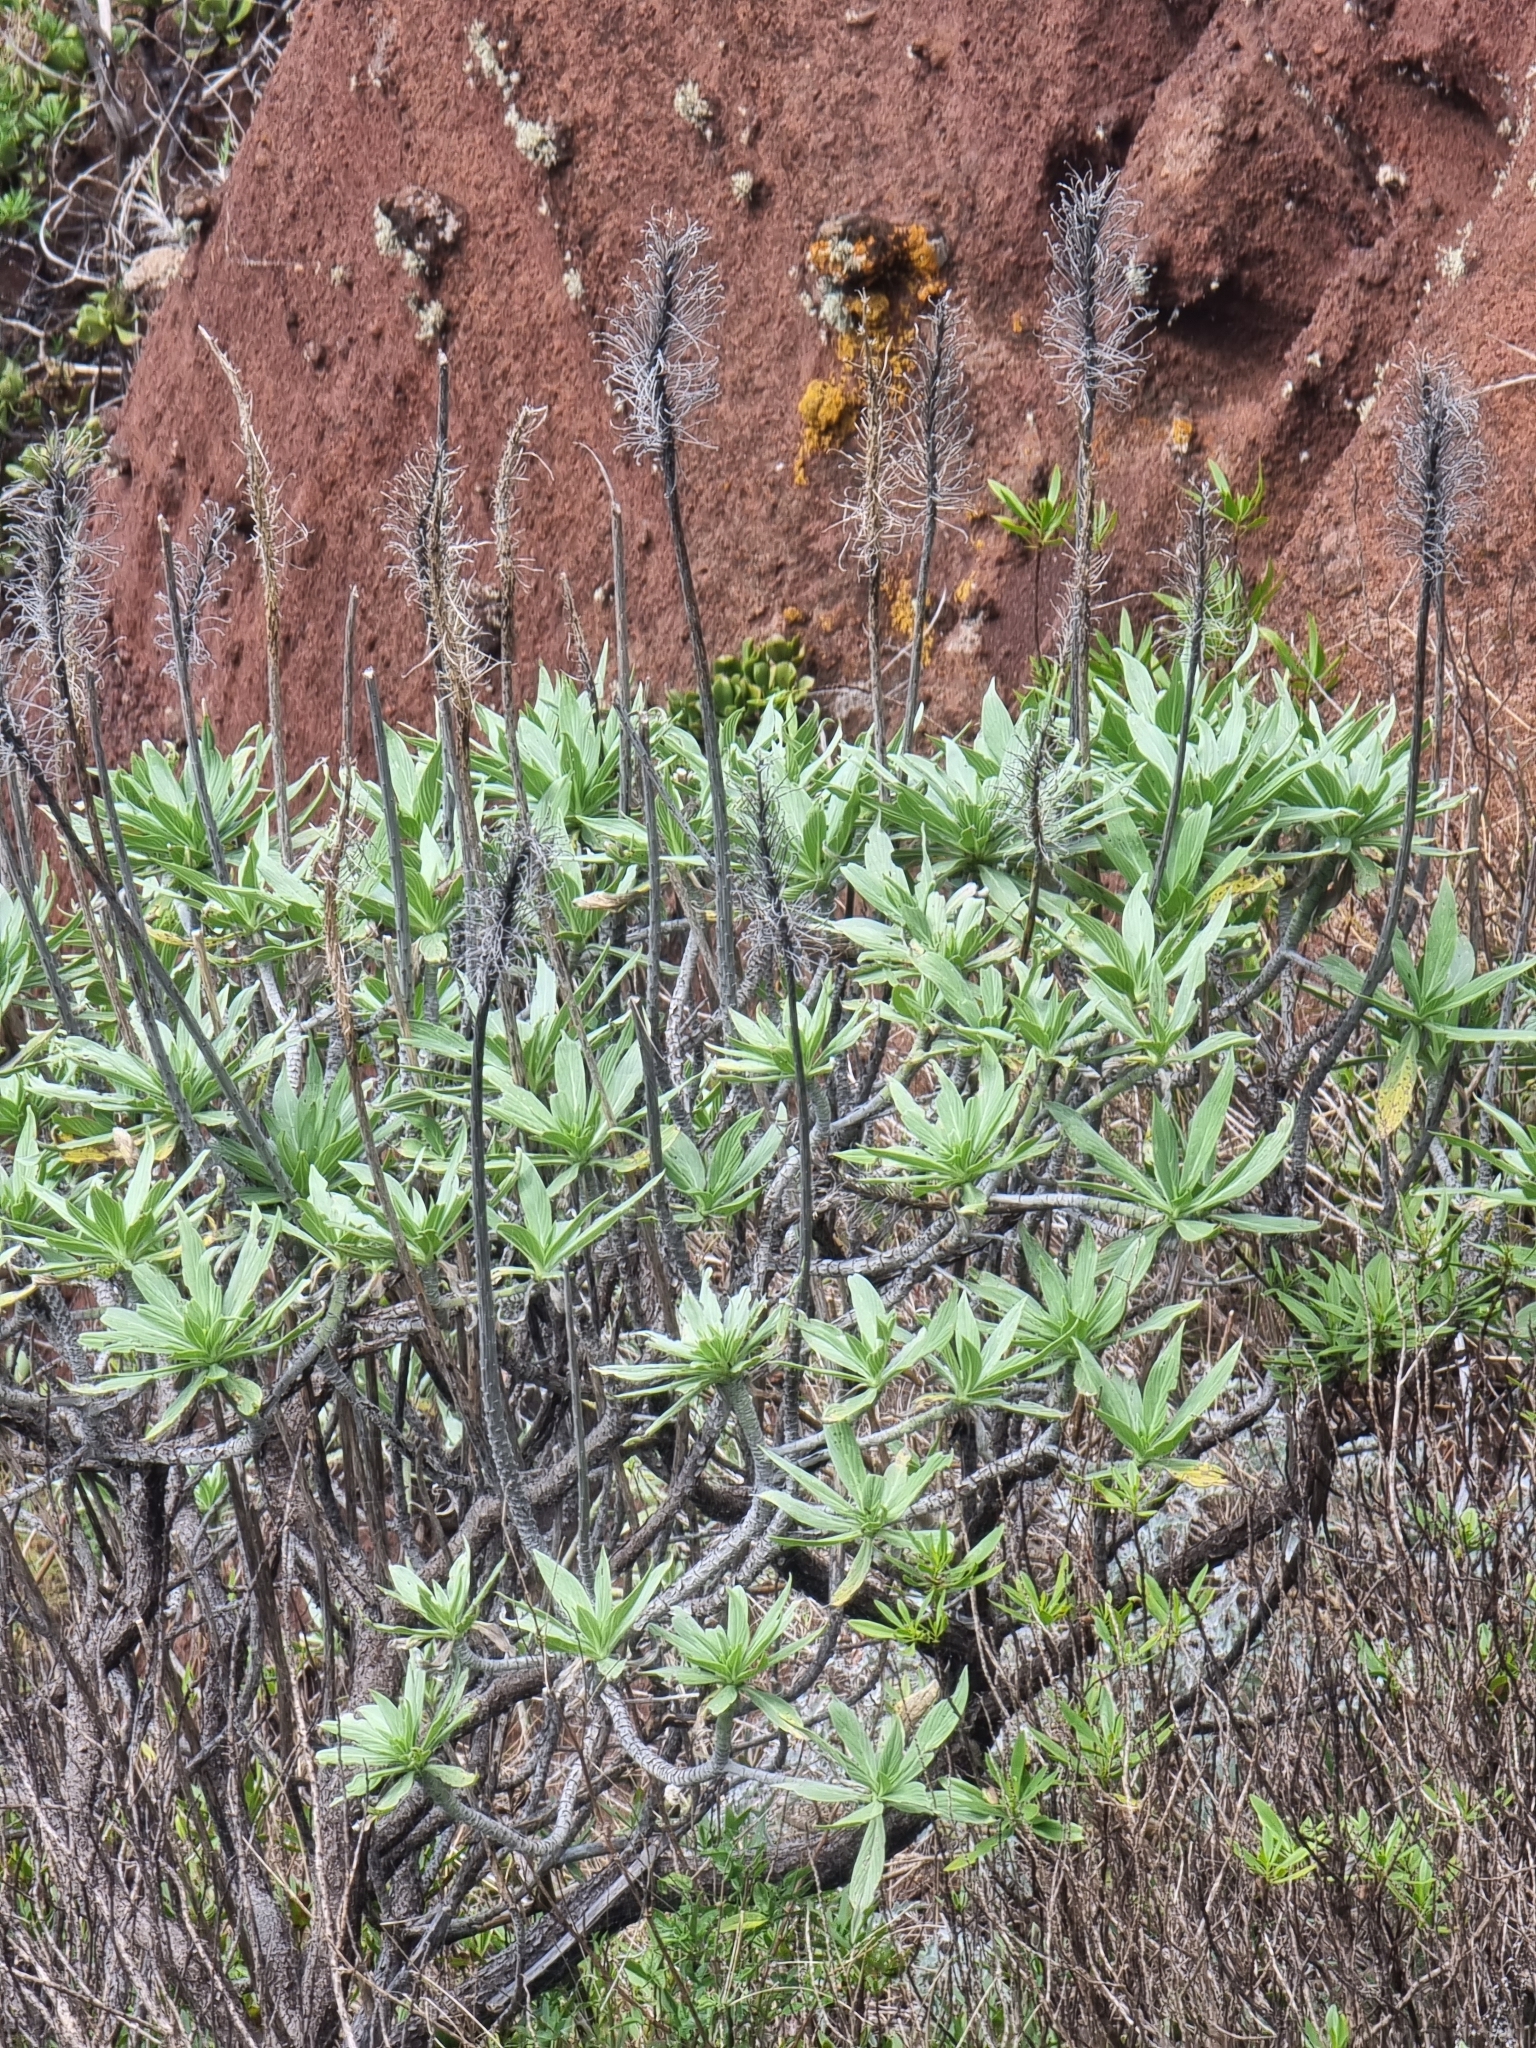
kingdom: Plantae
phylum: Tracheophyta
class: Magnoliopsida
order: Boraginales
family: Boraginaceae
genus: Echium
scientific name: Echium nervosum
